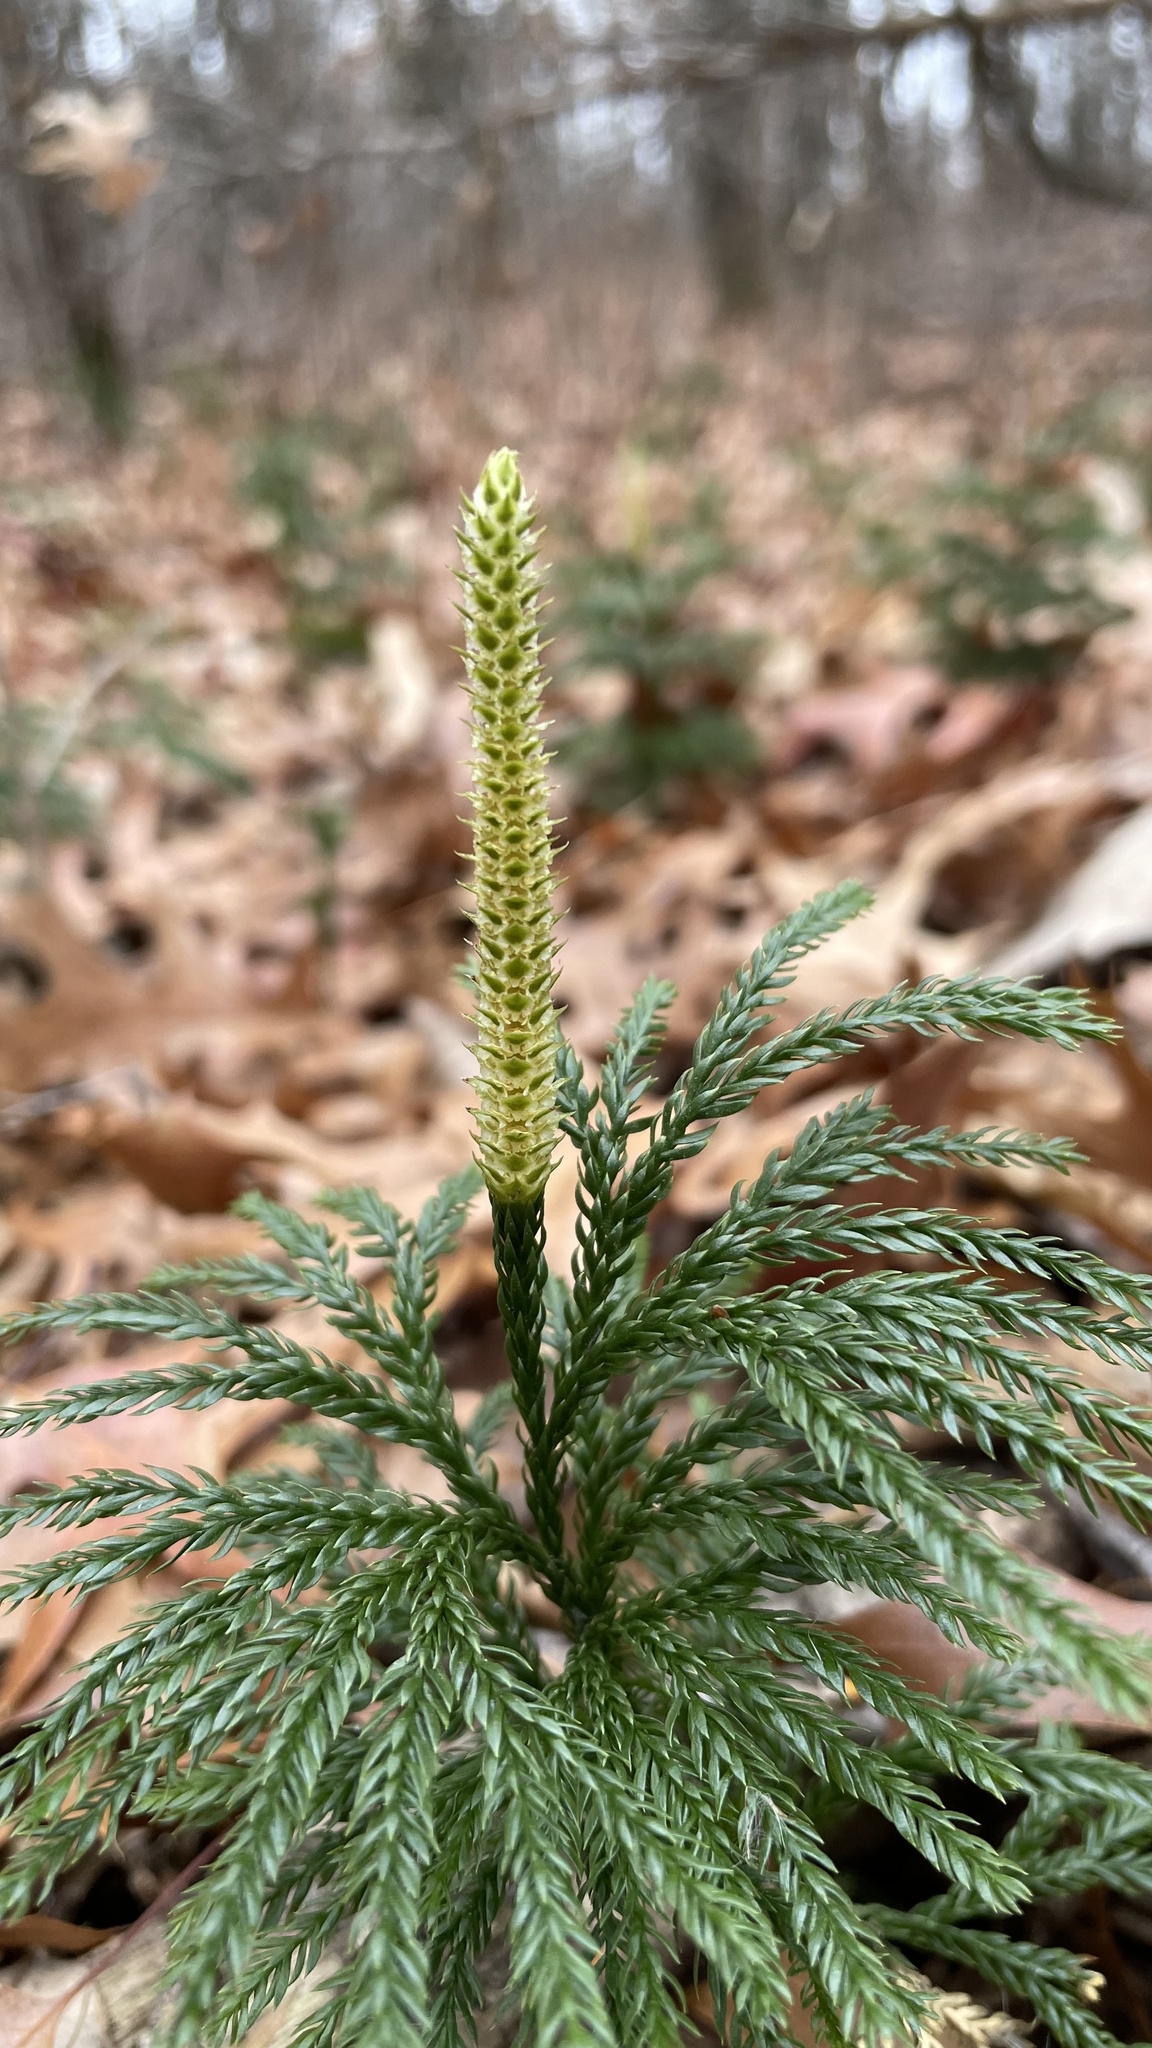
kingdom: Plantae
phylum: Tracheophyta
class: Lycopodiopsida
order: Lycopodiales
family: Lycopodiaceae
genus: Dendrolycopodium
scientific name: Dendrolycopodium obscurum
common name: Common ground-pine
